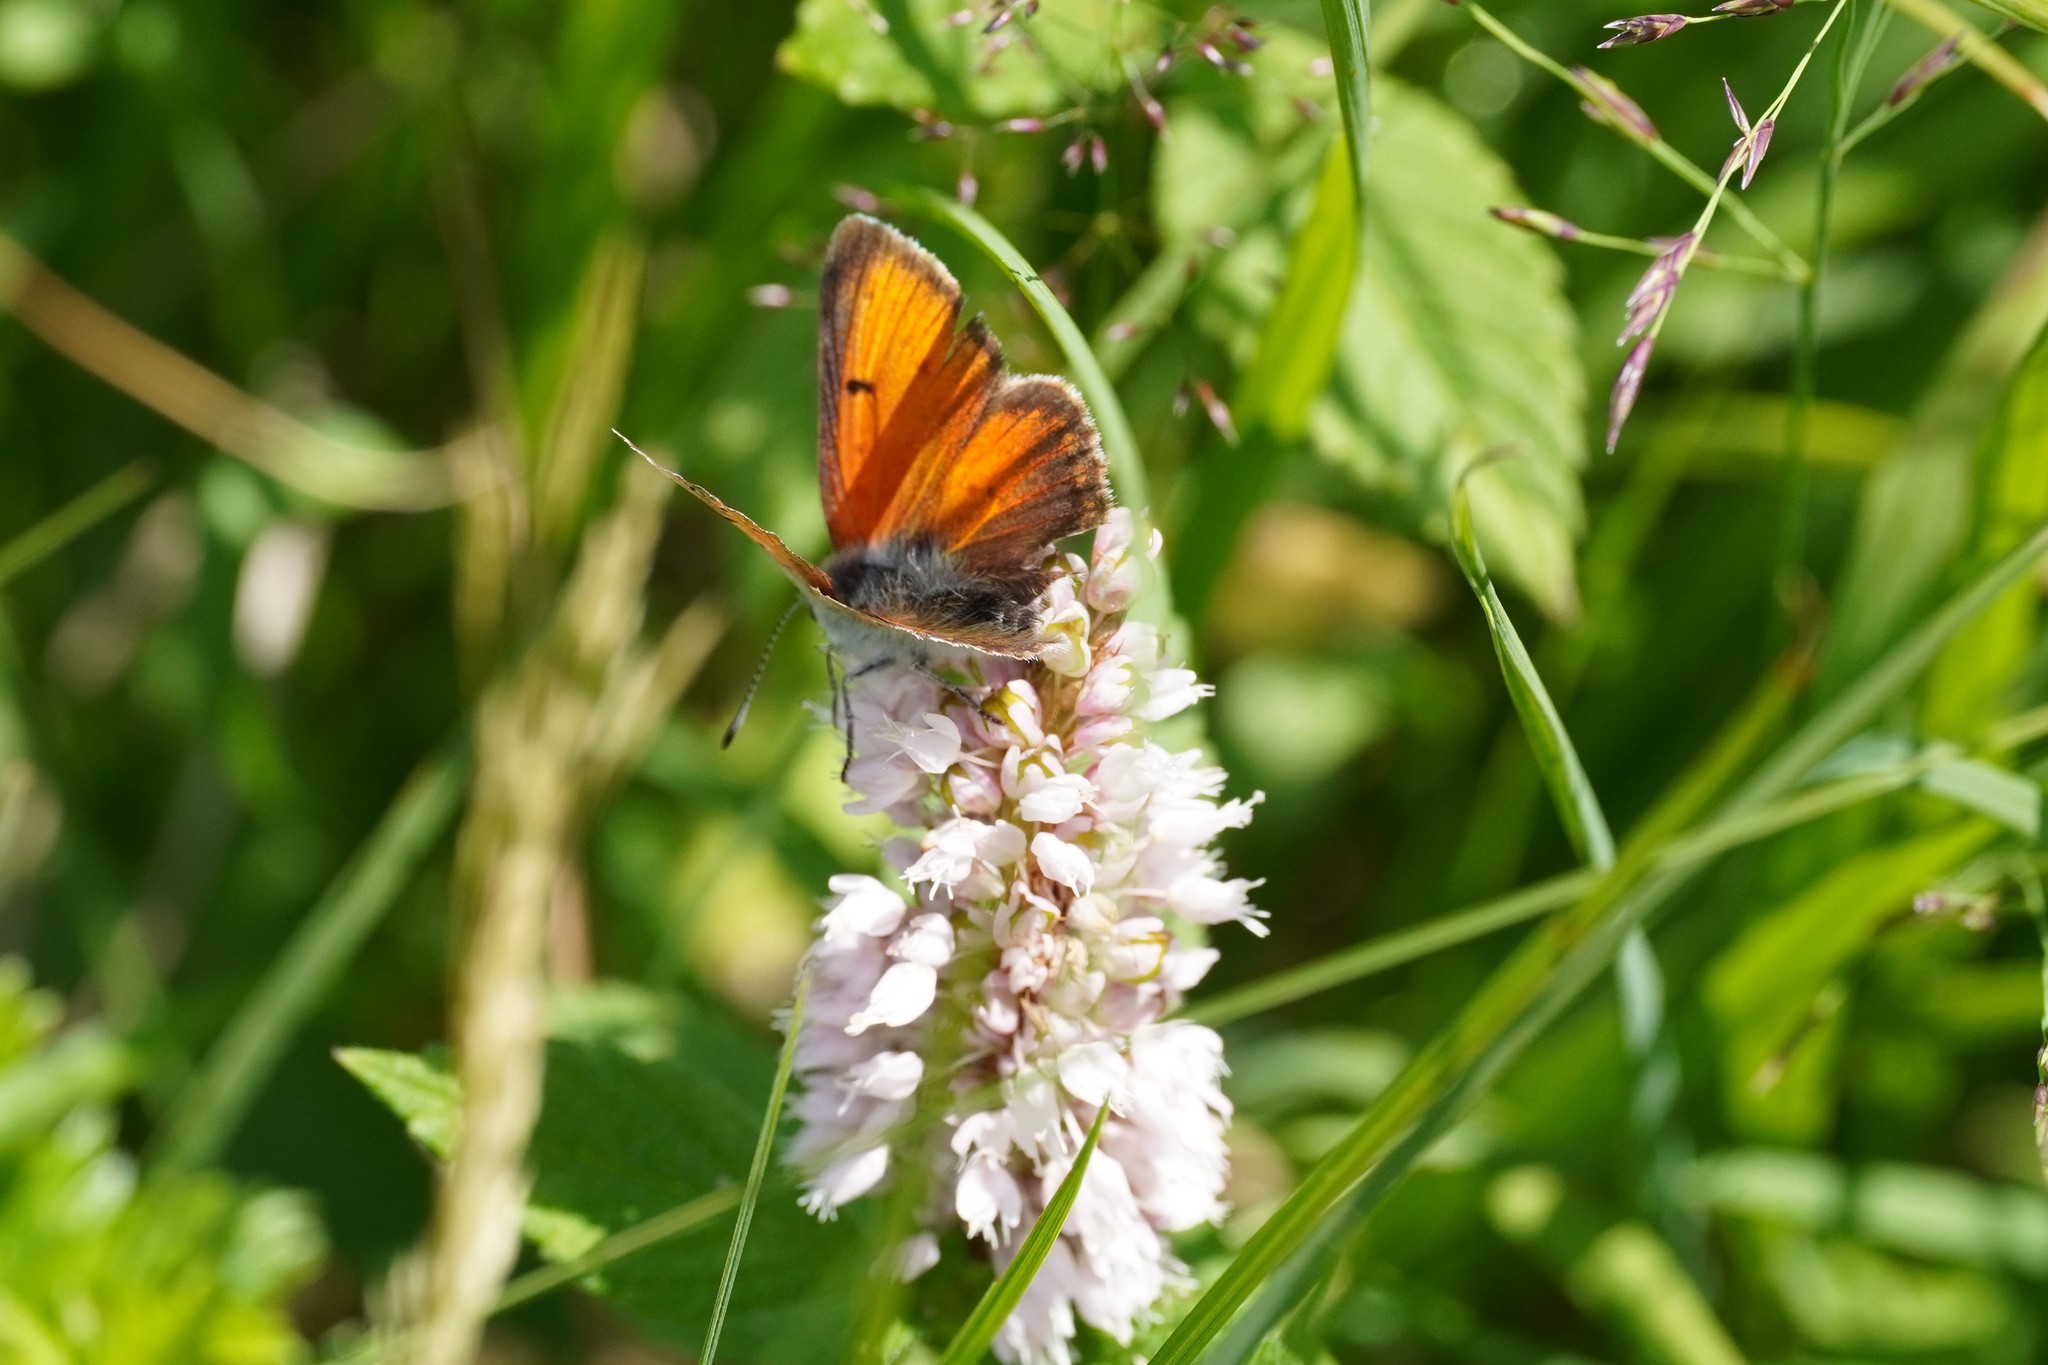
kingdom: Animalia
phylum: Arthropoda
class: Insecta
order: Lepidoptera
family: Lycaenidae
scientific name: Lycaenidae
